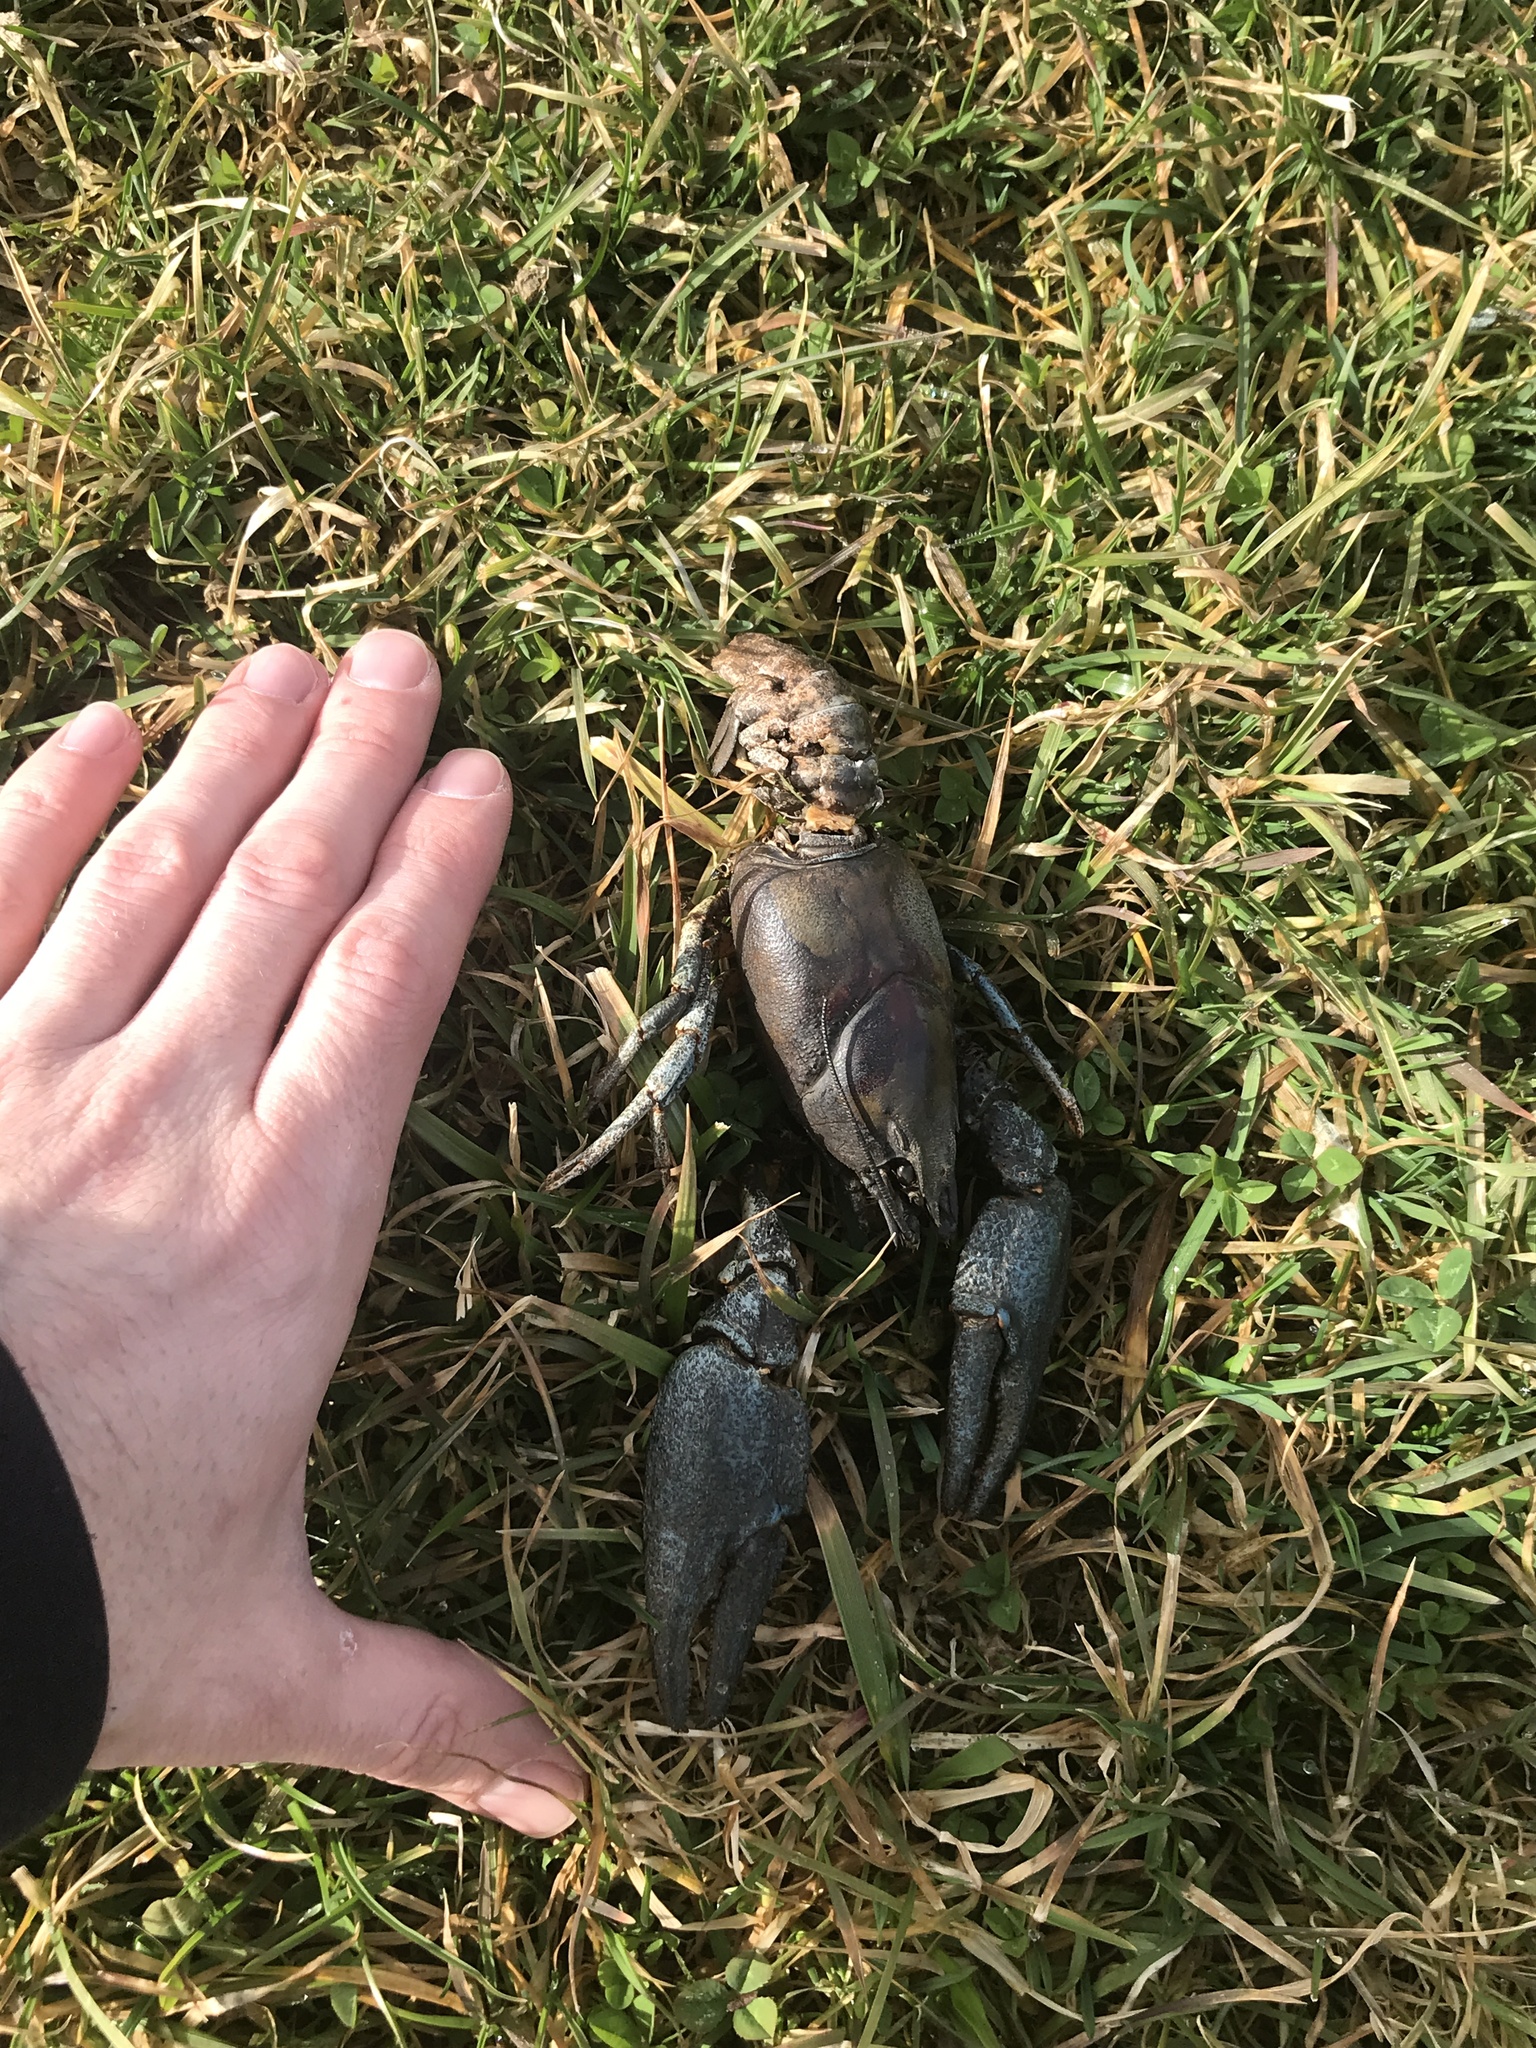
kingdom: Animalia
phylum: Arthropoda
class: Malacostraca
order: Decapoda
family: Astacidae
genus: Pacifastacus
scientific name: Pacifastacus leniusculus
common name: Signal crayfish
